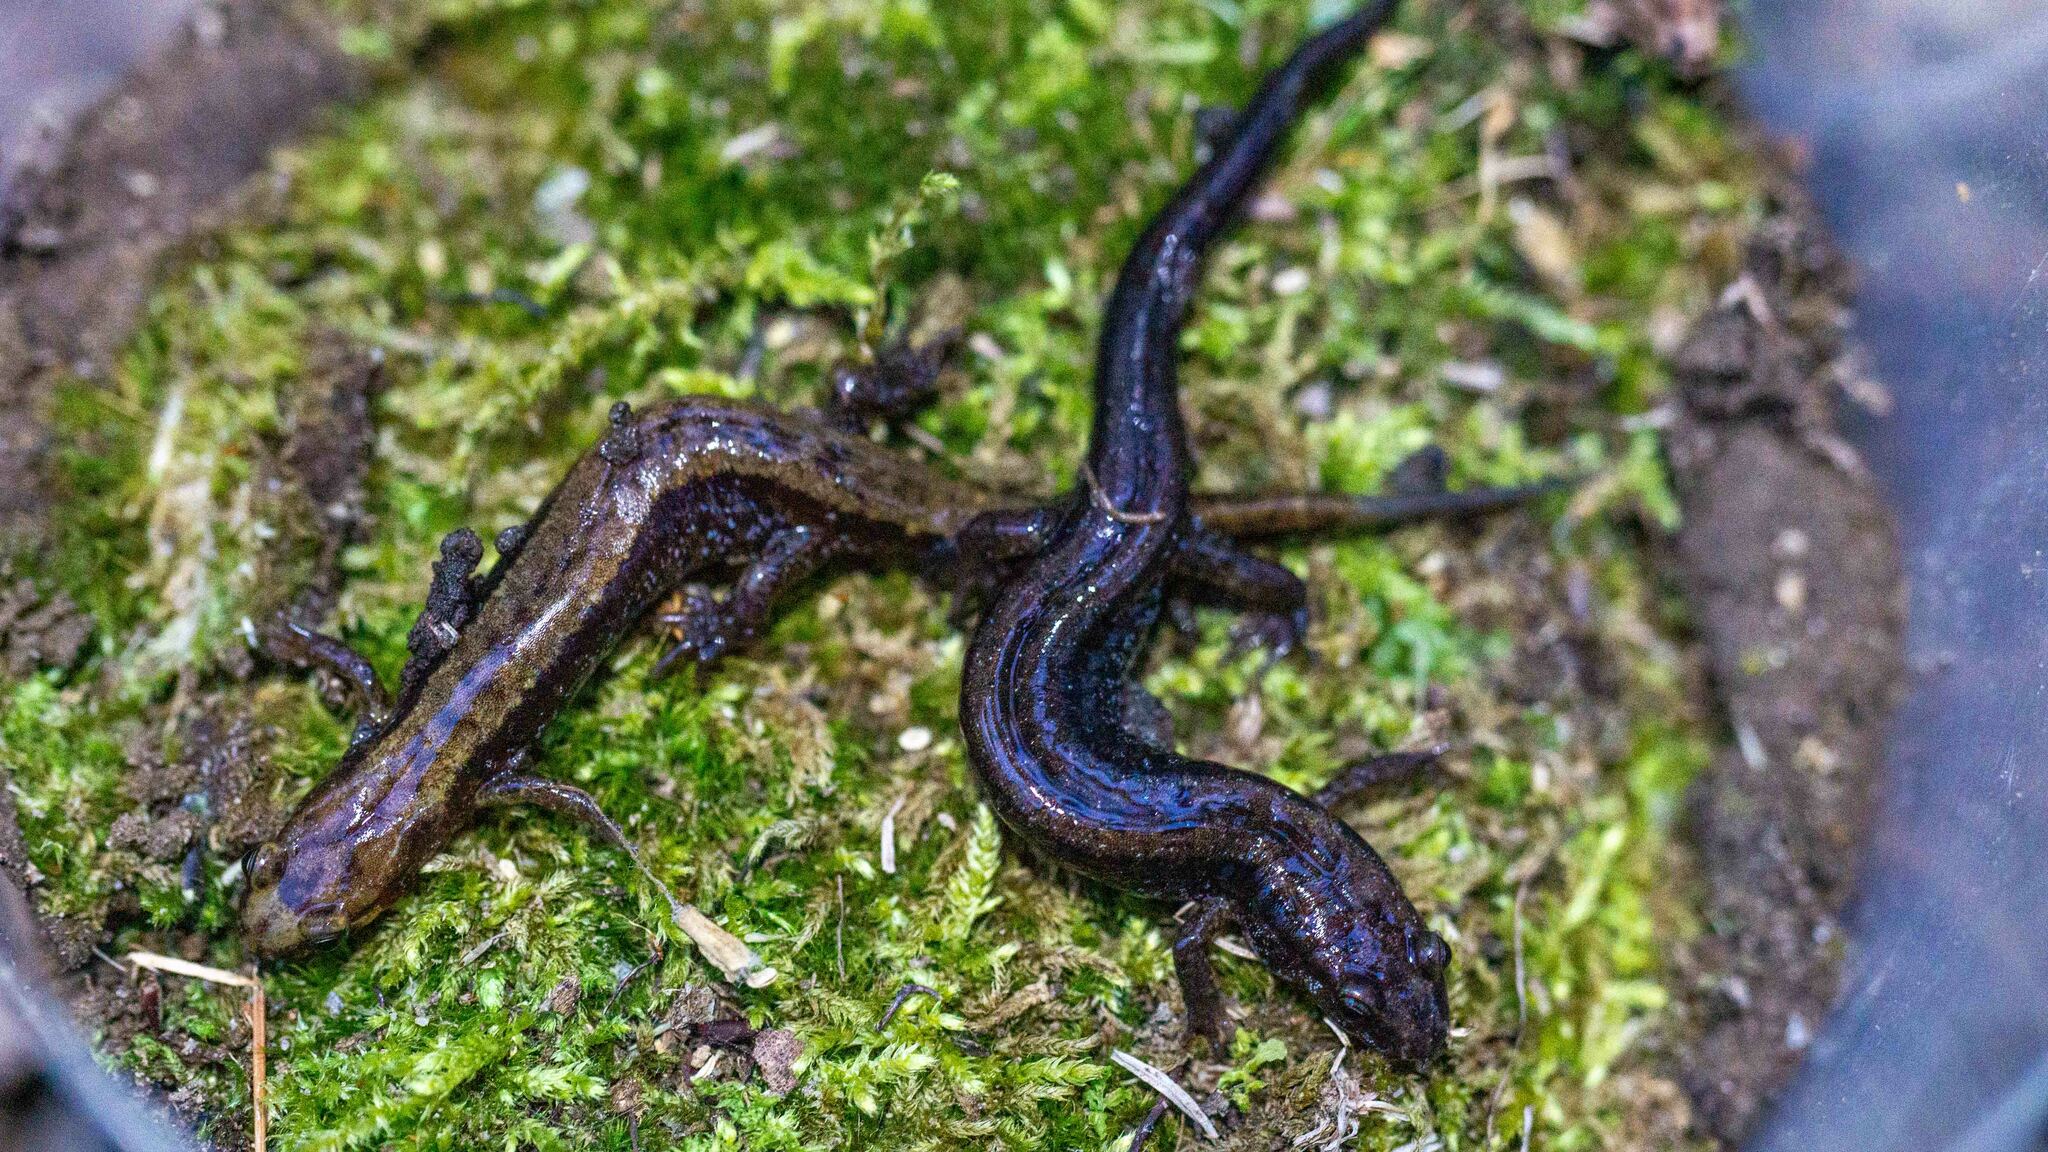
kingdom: Animalia
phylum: Chordata
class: Amphibia
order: Caudata
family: Plethodontidae
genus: Desmognathus
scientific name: Desmognathus ochrophaeus
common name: Allegheny mountain dusky salamander
